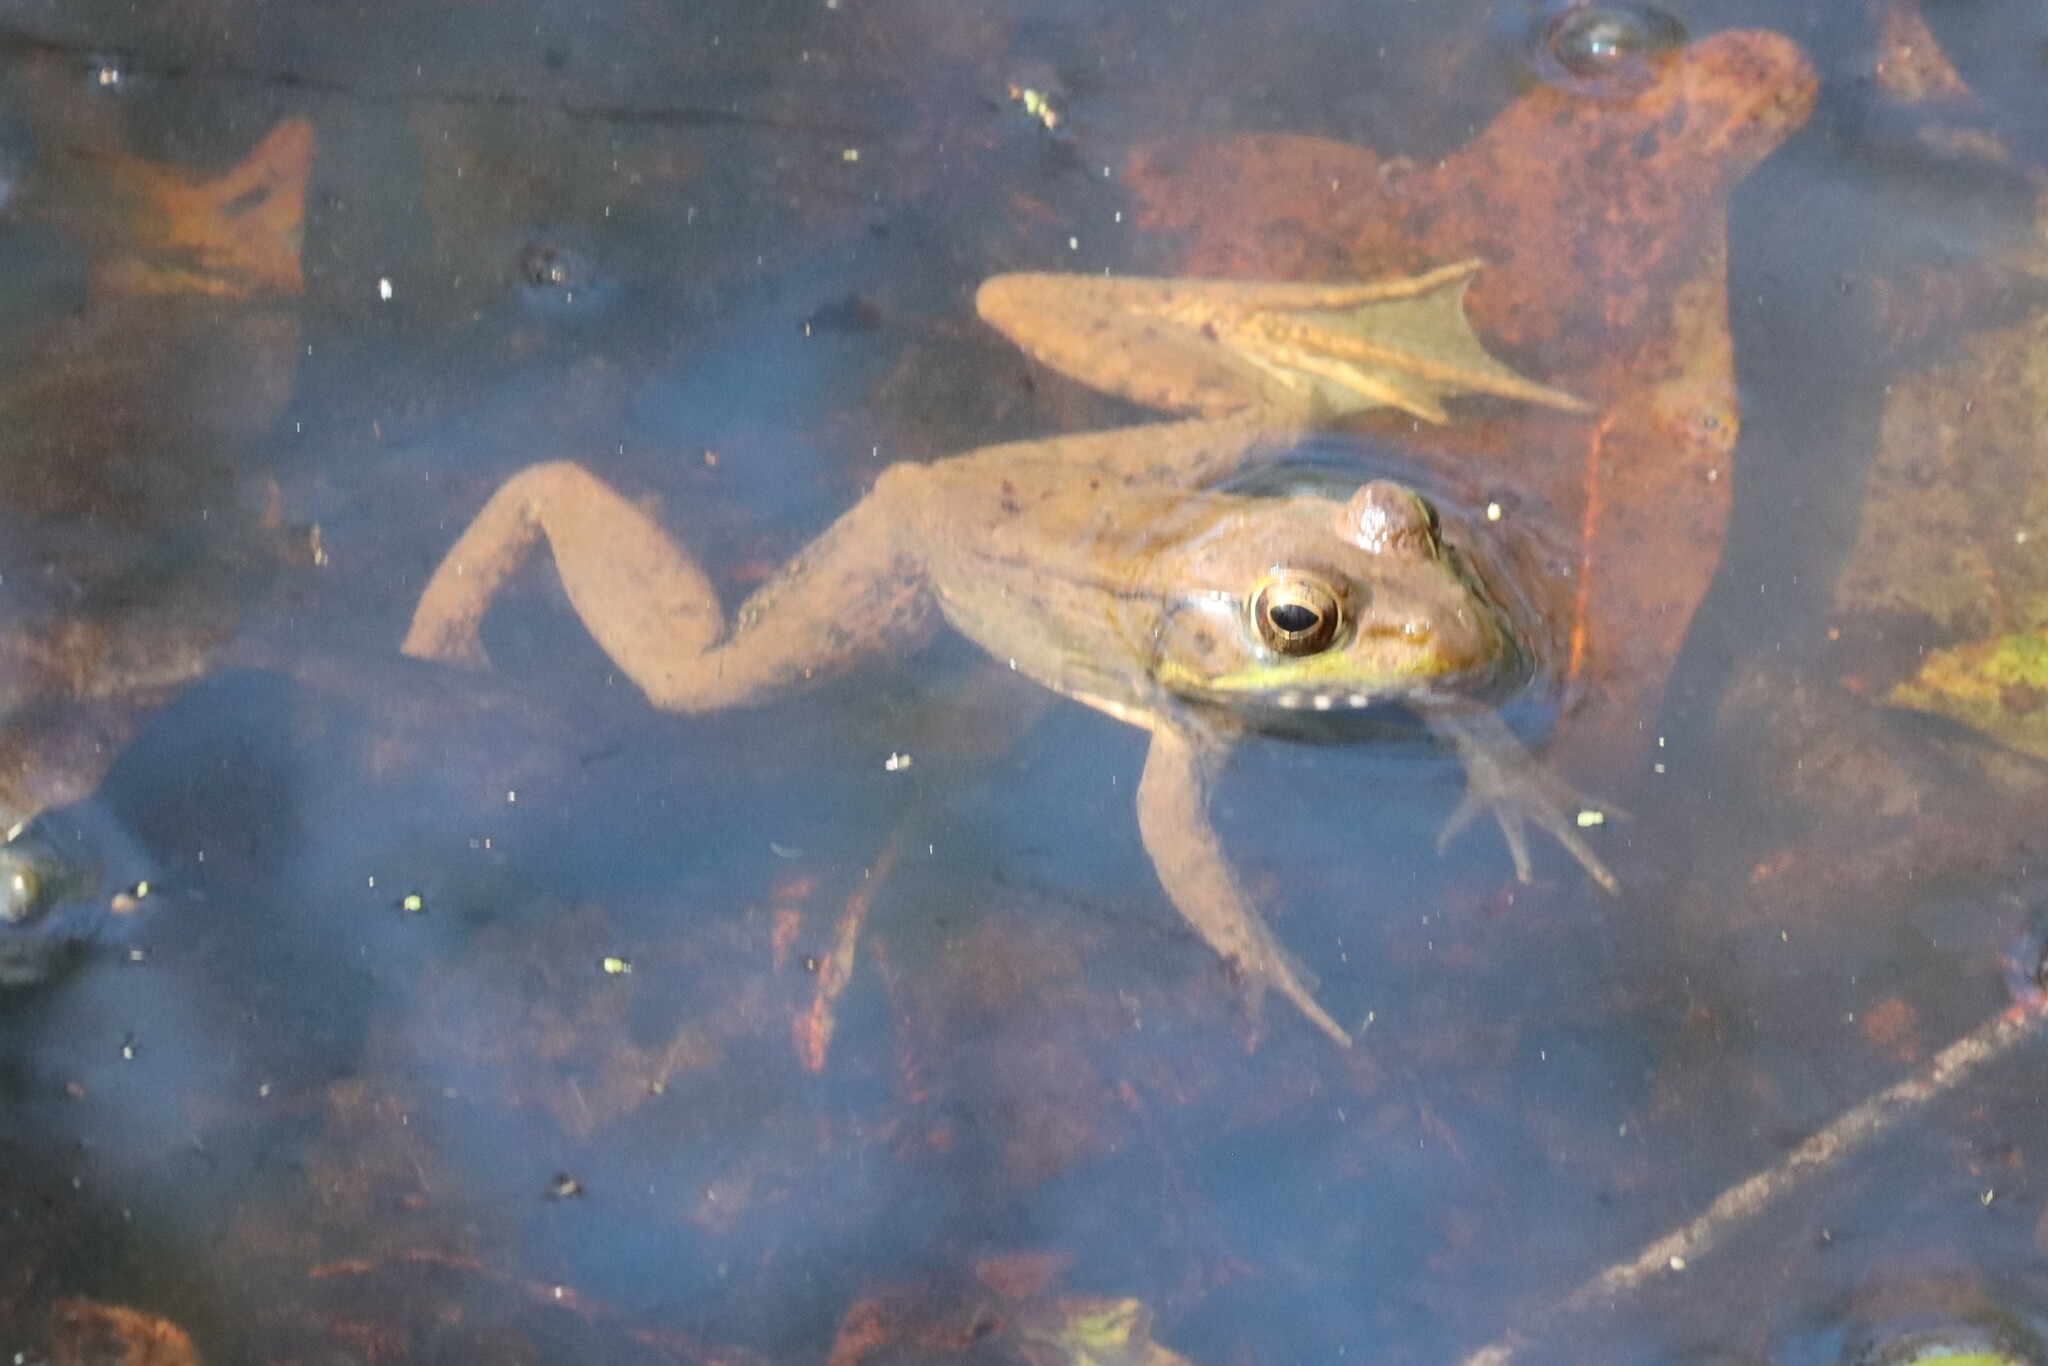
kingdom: Animalia
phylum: Chordata
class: Amphibia
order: Anura
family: Ranidae
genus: Lithobates
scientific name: Lithobates clamitans
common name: Green frog
